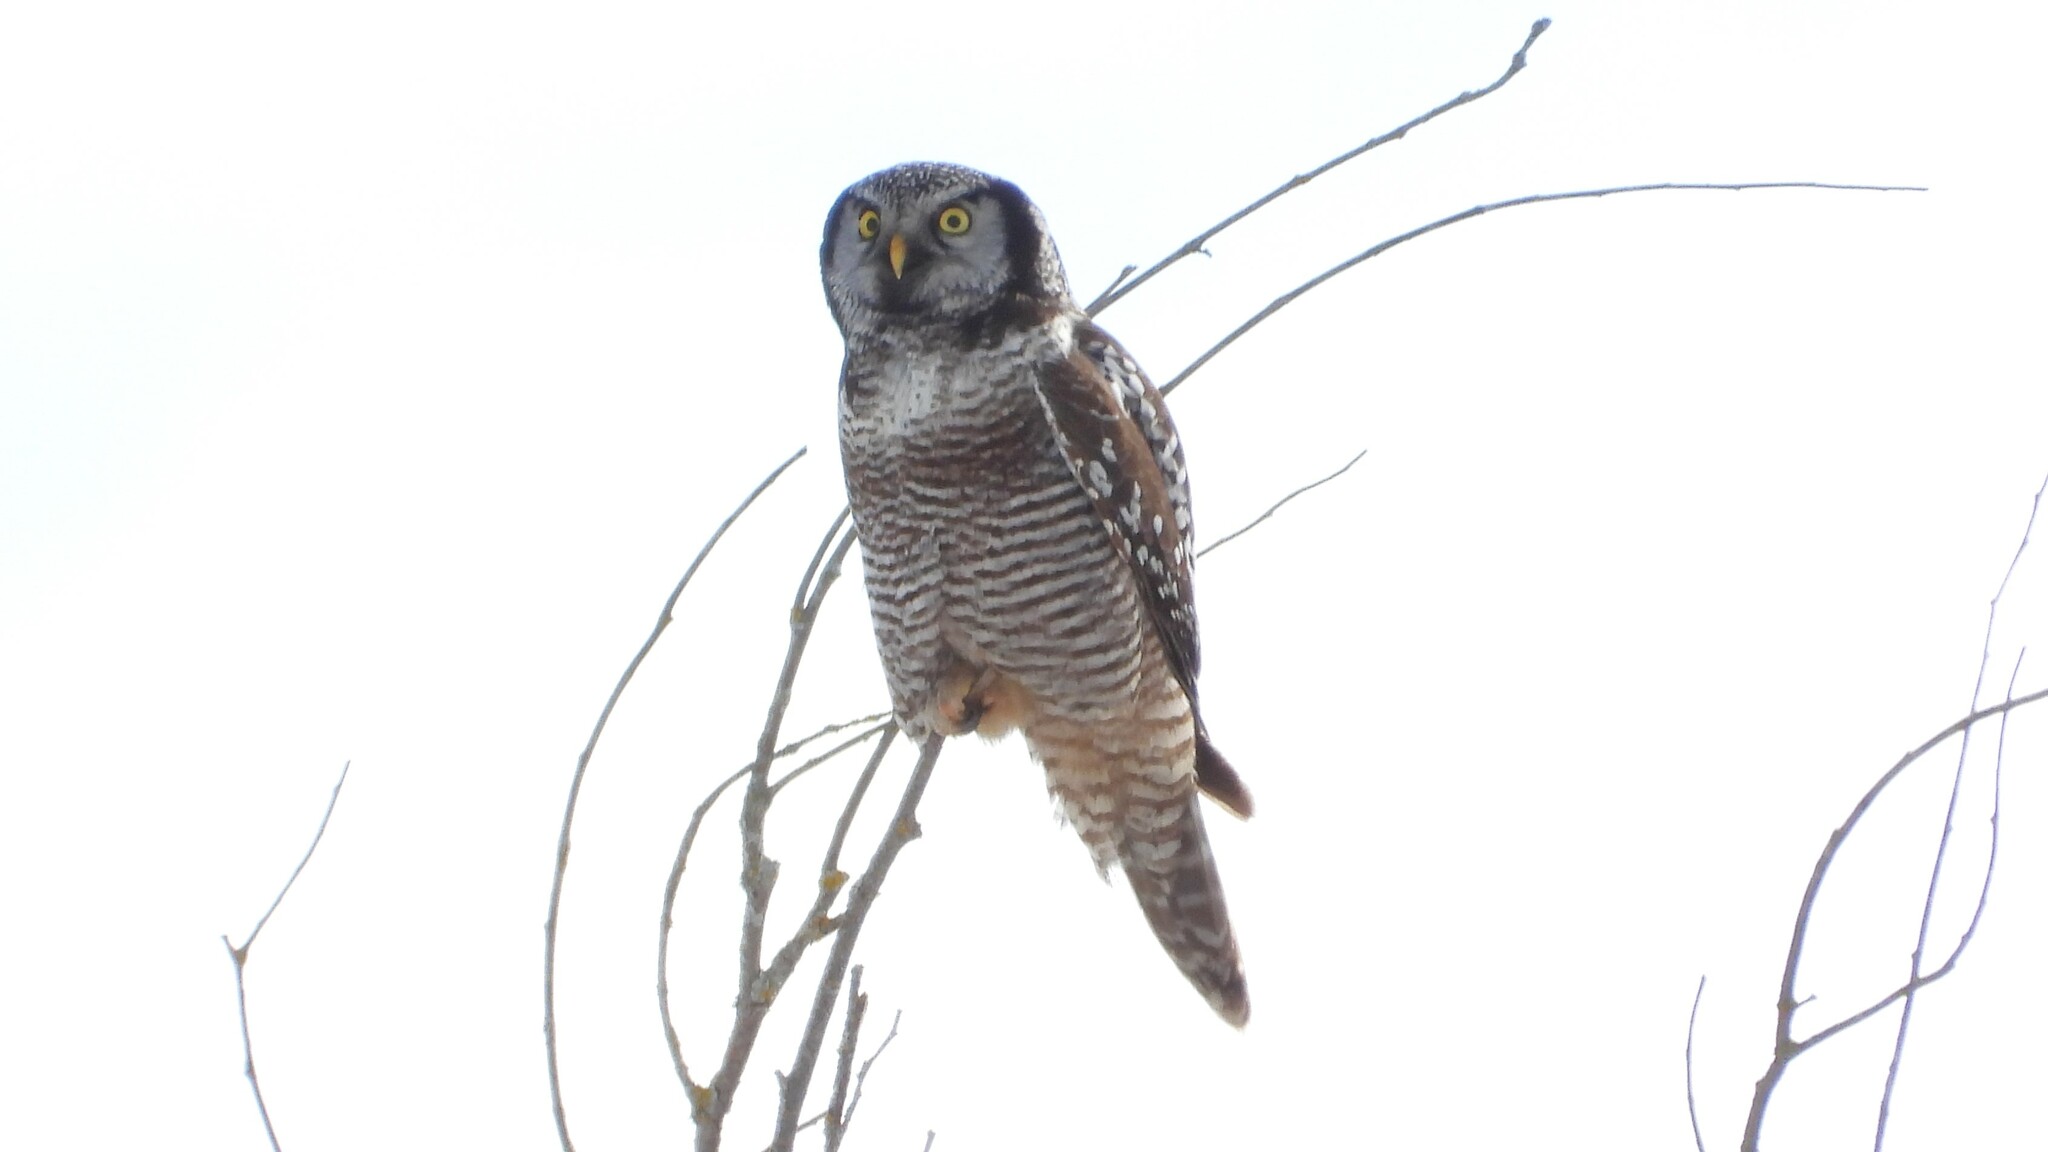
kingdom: Animalia
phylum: Chordata
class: Aves
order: Strigiformes
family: Strigidae
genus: Surnia
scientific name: Surnia ulula
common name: Northern hawk-owl
